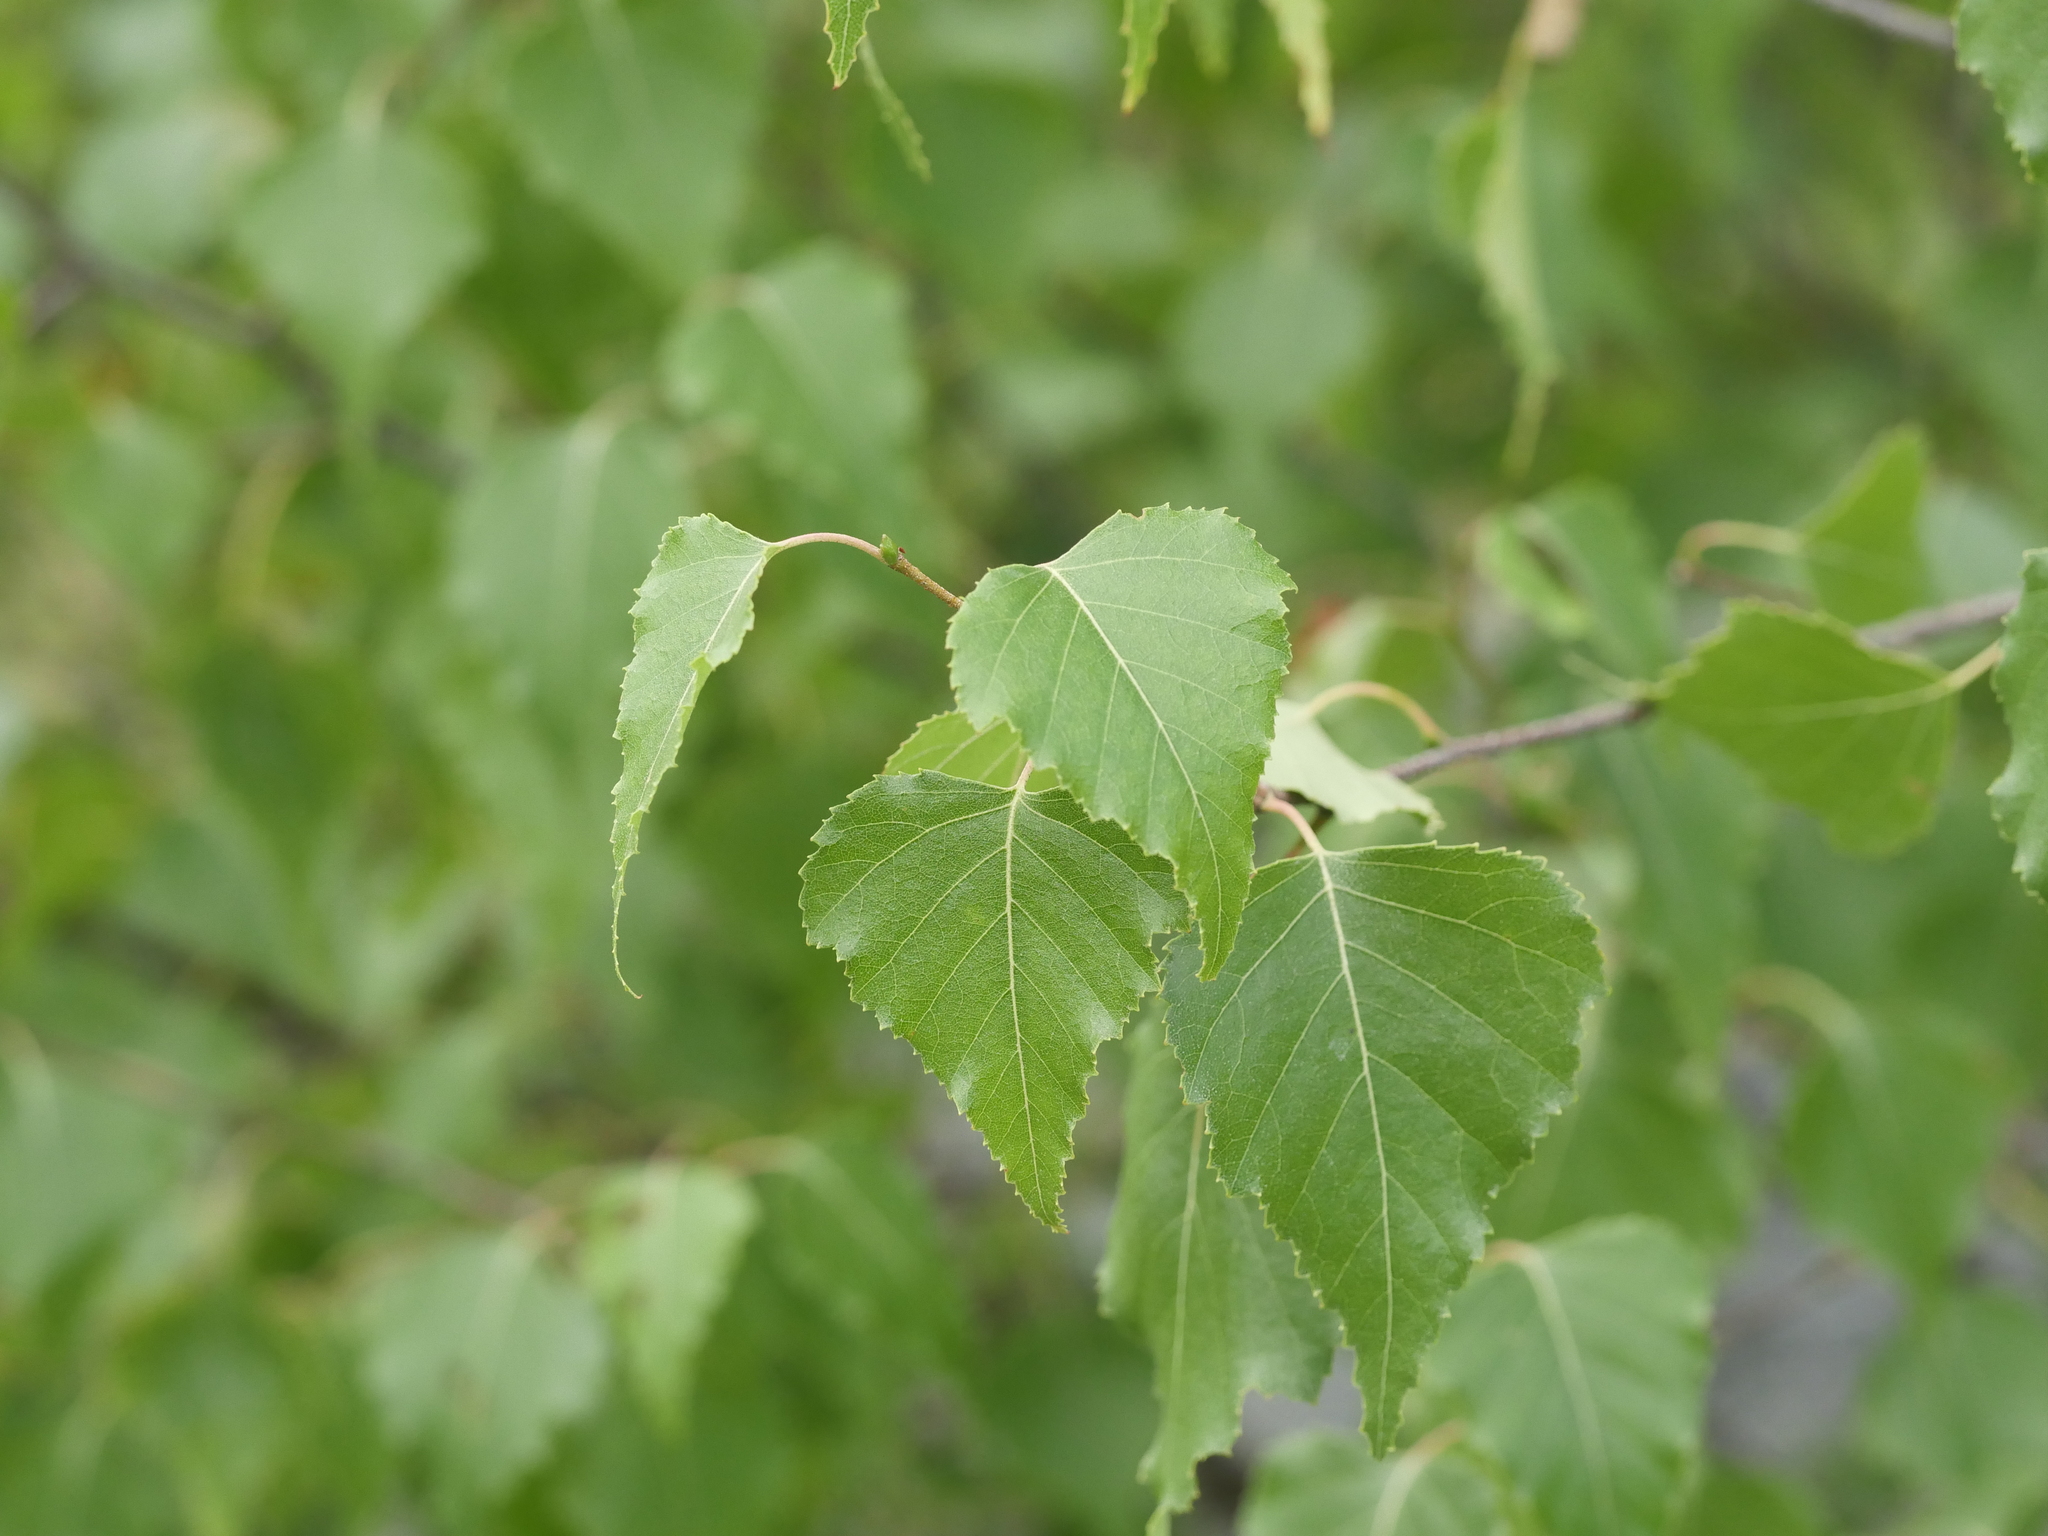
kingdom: Plantae
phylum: Tracheophyta
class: Magnoliopsida
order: Fagales
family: Betulaceae
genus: Betula
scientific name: Betula populifolia
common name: Fire birch
